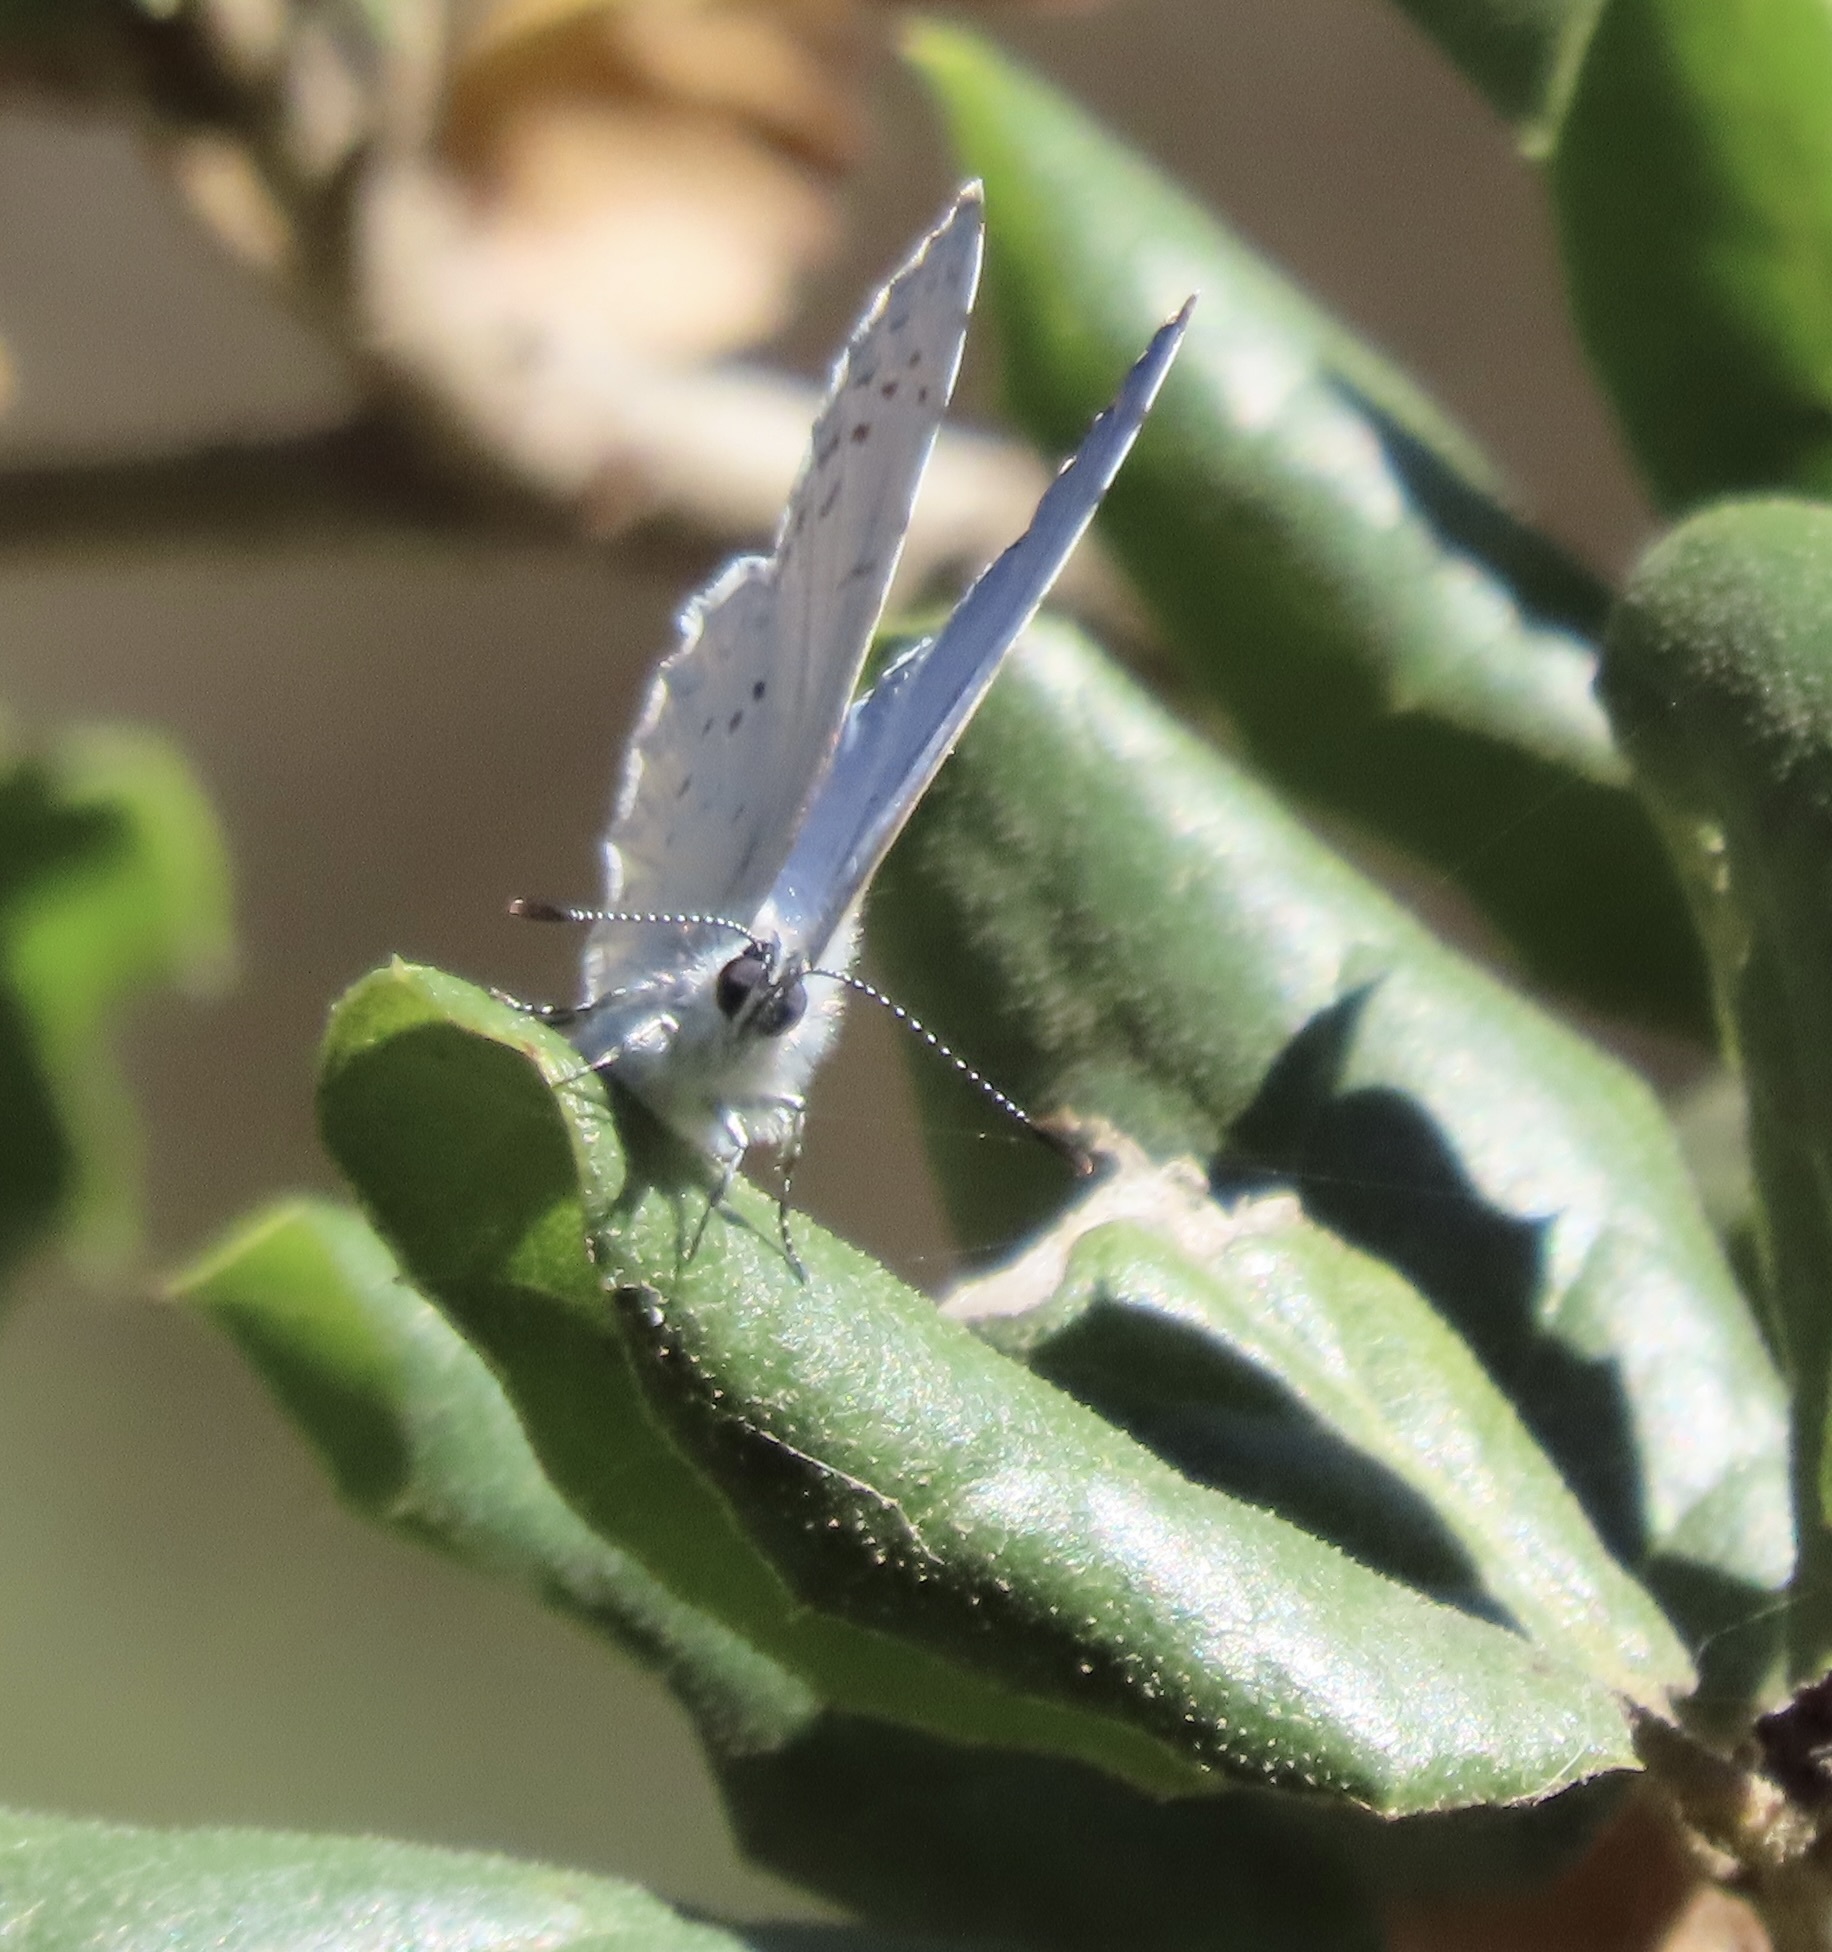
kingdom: Animalia
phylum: Arthropoda
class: Insecta
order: Lepidoptera
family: Lycaenidae
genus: Celastrina
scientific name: Celastrina ladon
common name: Spring azure
